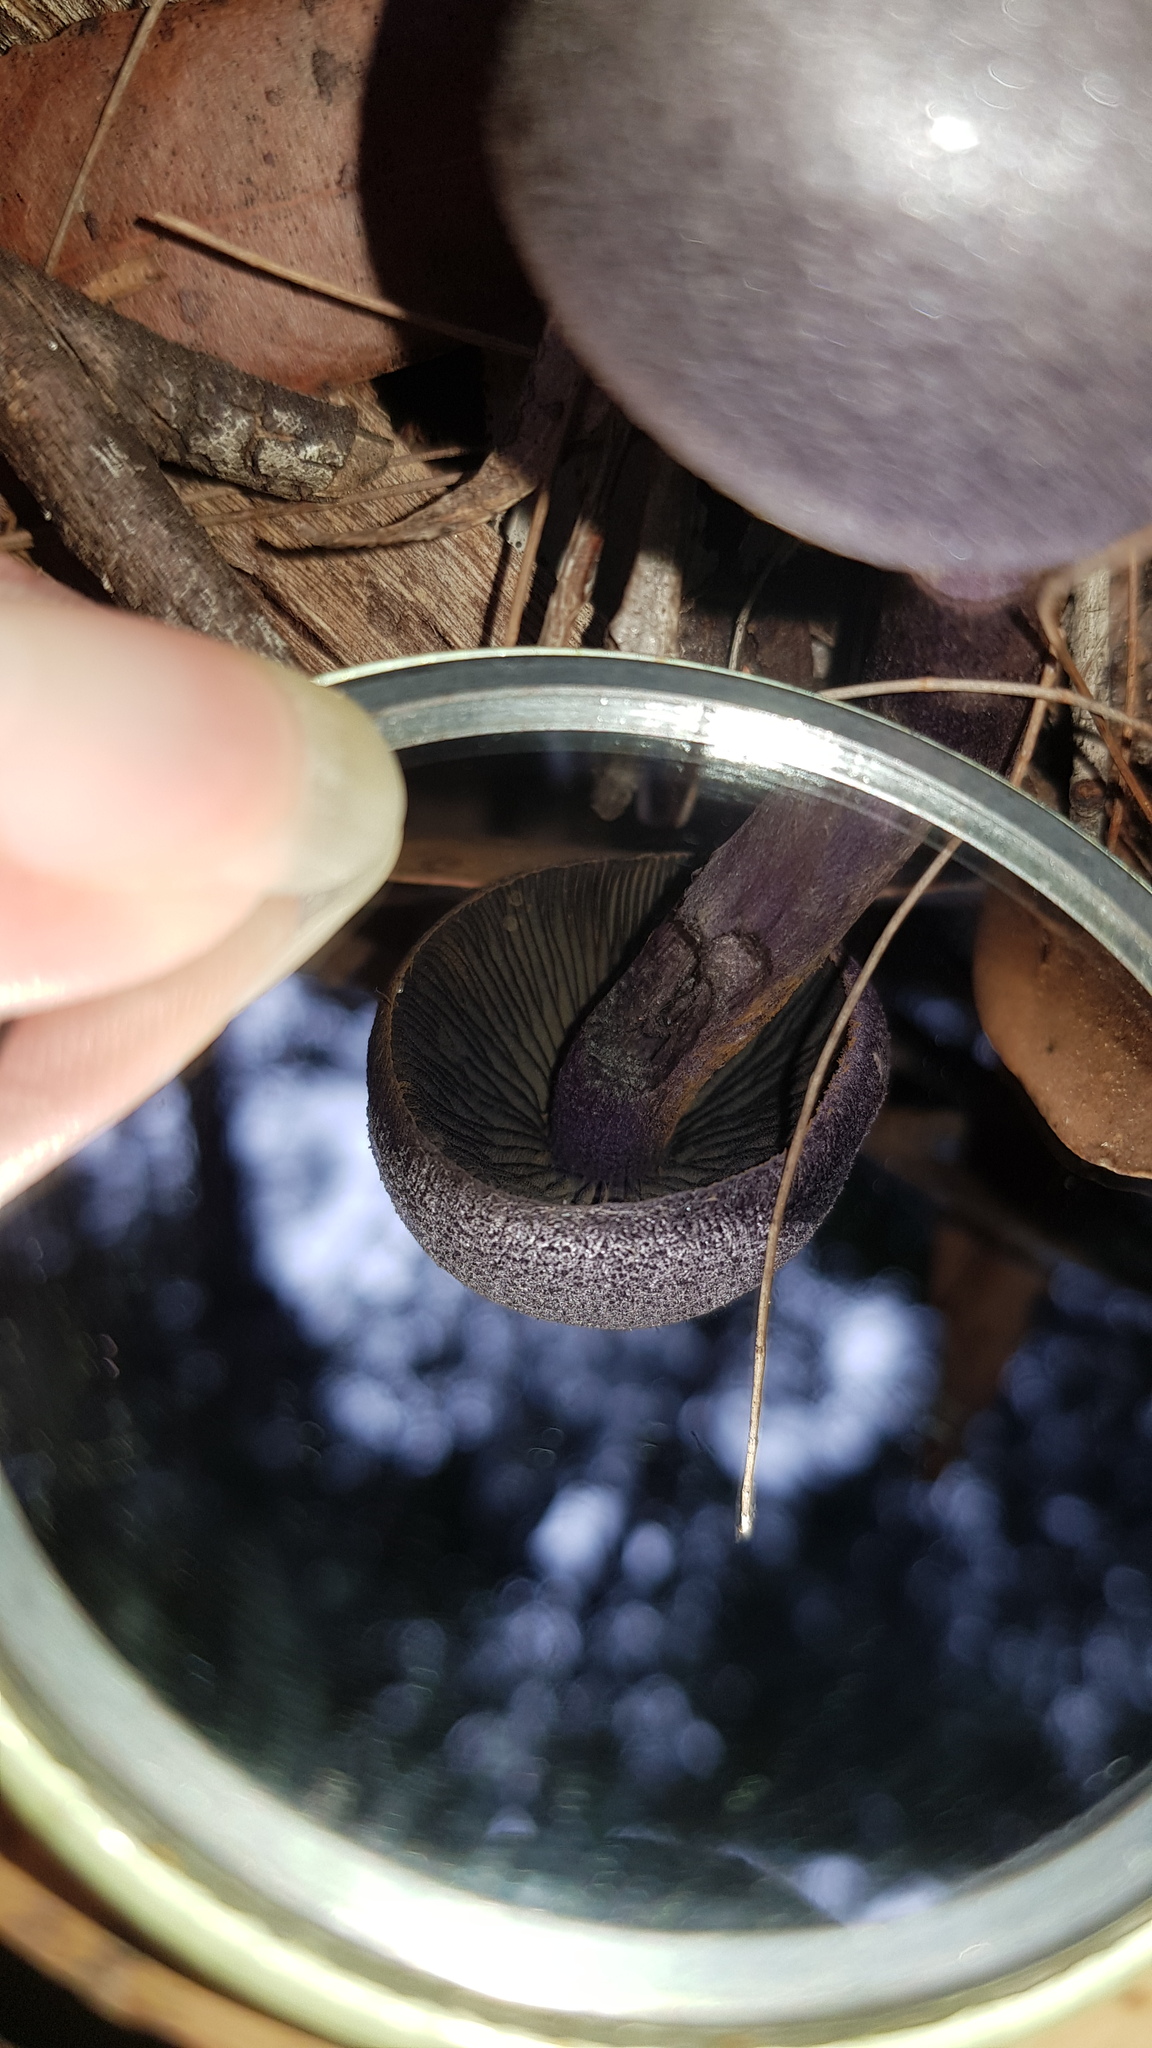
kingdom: Fungi
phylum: Basidiomycota
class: Agaricomycetes
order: Agaricales
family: Cortinariaceae
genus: Cortinarius
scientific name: Cortinarius kioloensis
